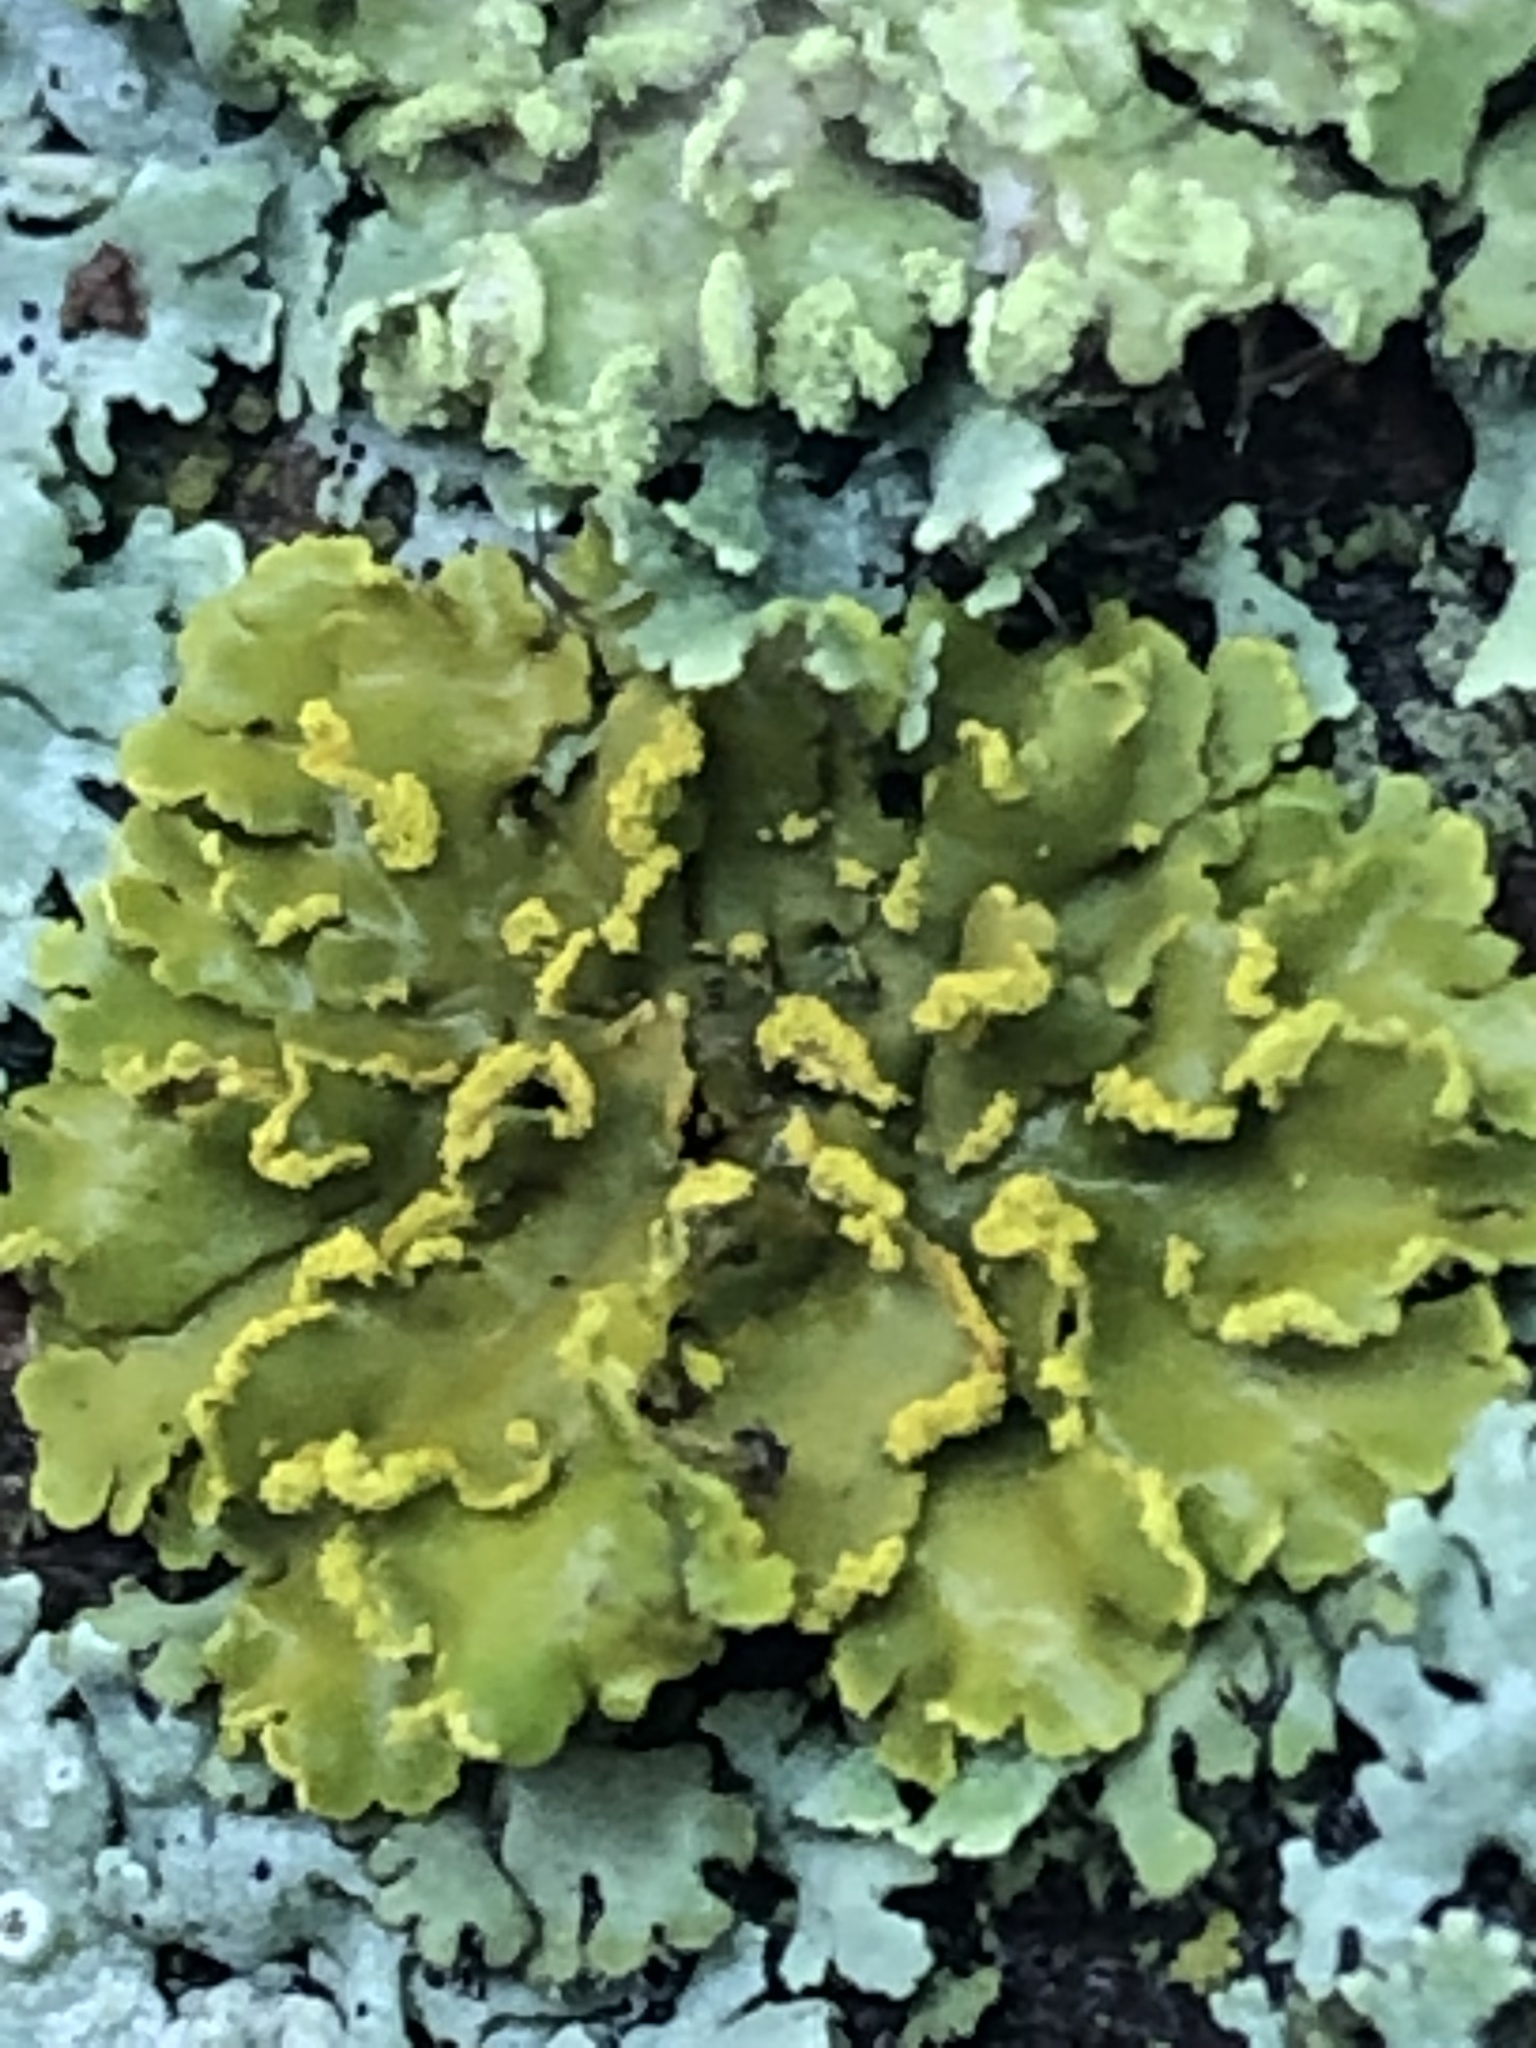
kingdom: Fungi
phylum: Ascomycota
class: Lecanoromycetes
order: Teloschistales
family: Teloschistaceae
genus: Xanthoria
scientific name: Xanthoria ulophyllodes
